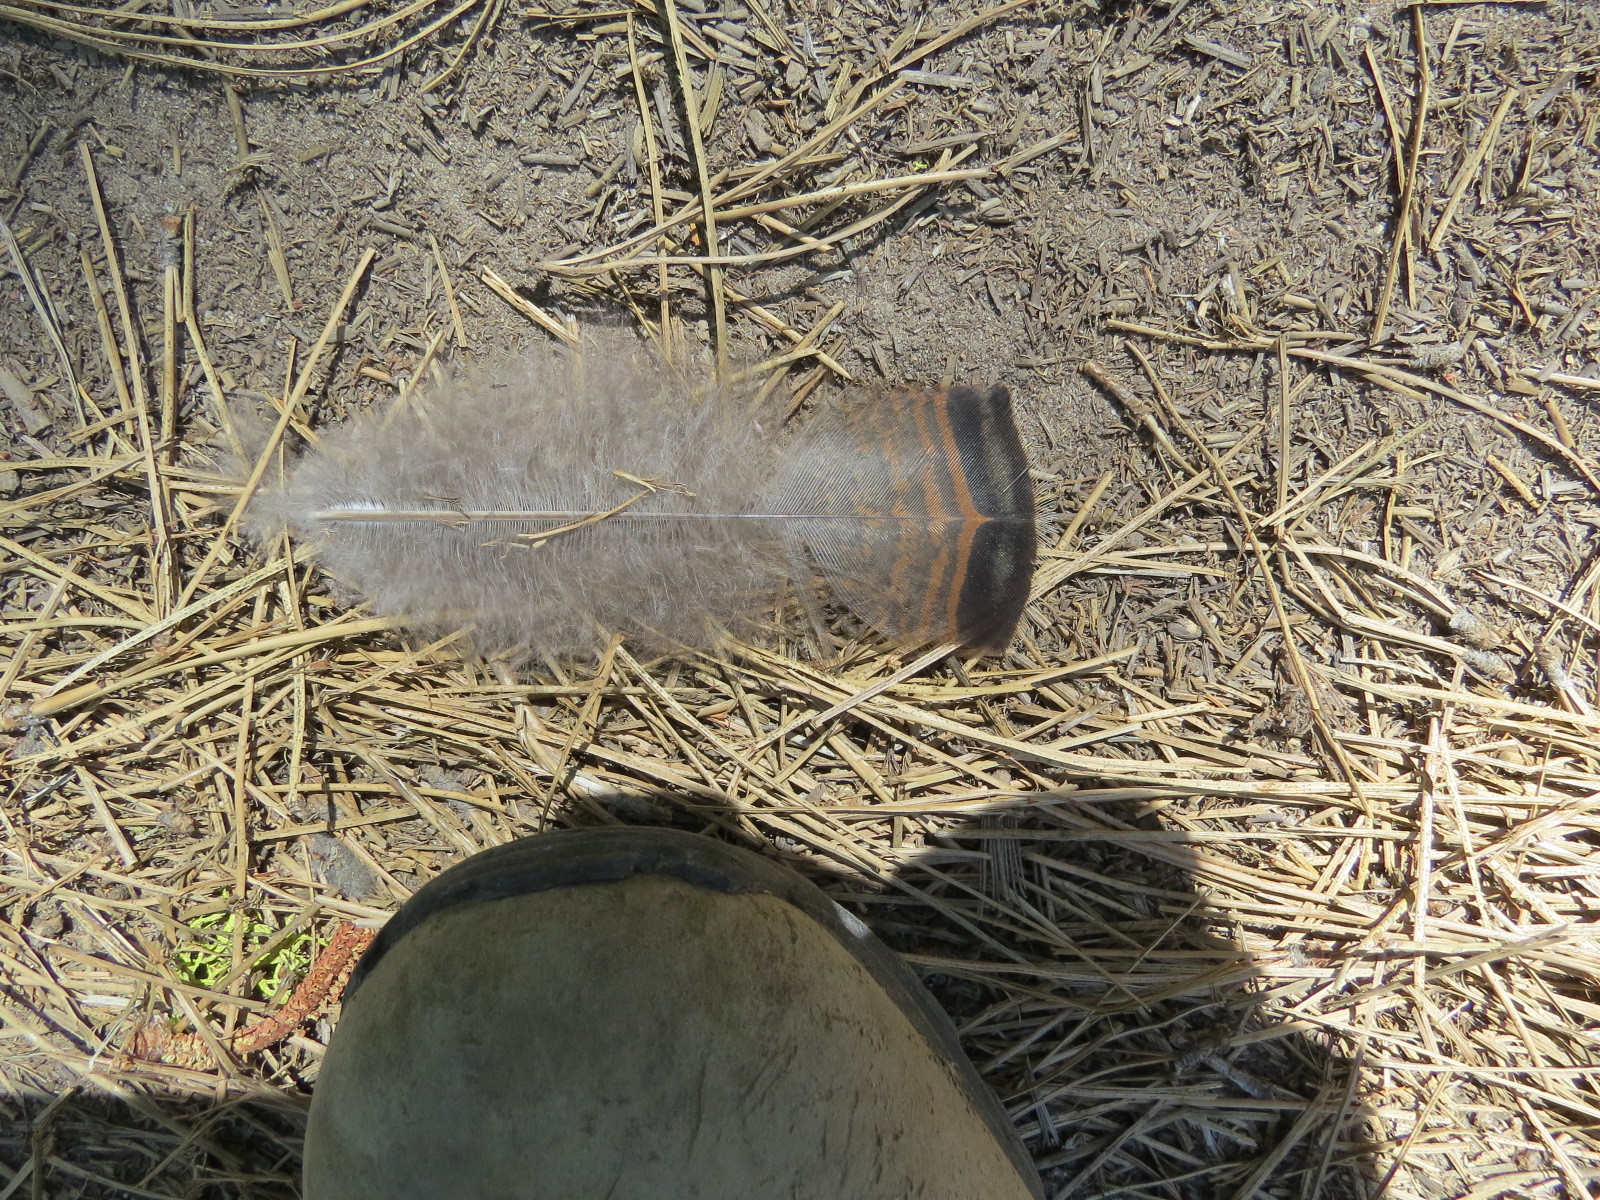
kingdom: Animalia
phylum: Chordata
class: Aves
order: Galliformes
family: Phasianidae
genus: Meleagris
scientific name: Meleagris gallopavo
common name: Wild turkey
